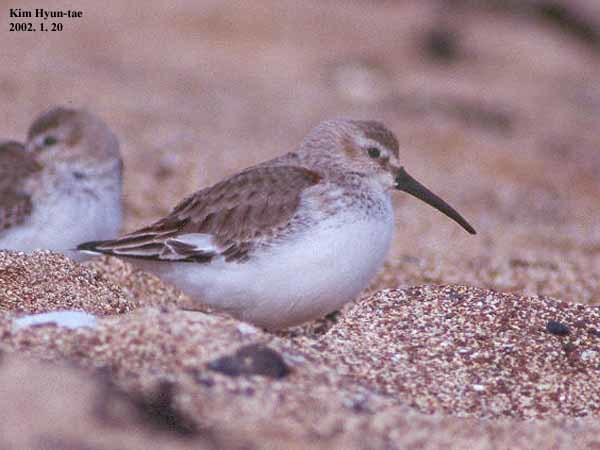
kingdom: Animalia
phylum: Chordata
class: Aves
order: Charadriiformes
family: Scolopacidae
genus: Calidris
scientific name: Calidris alpina
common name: Dunlin
